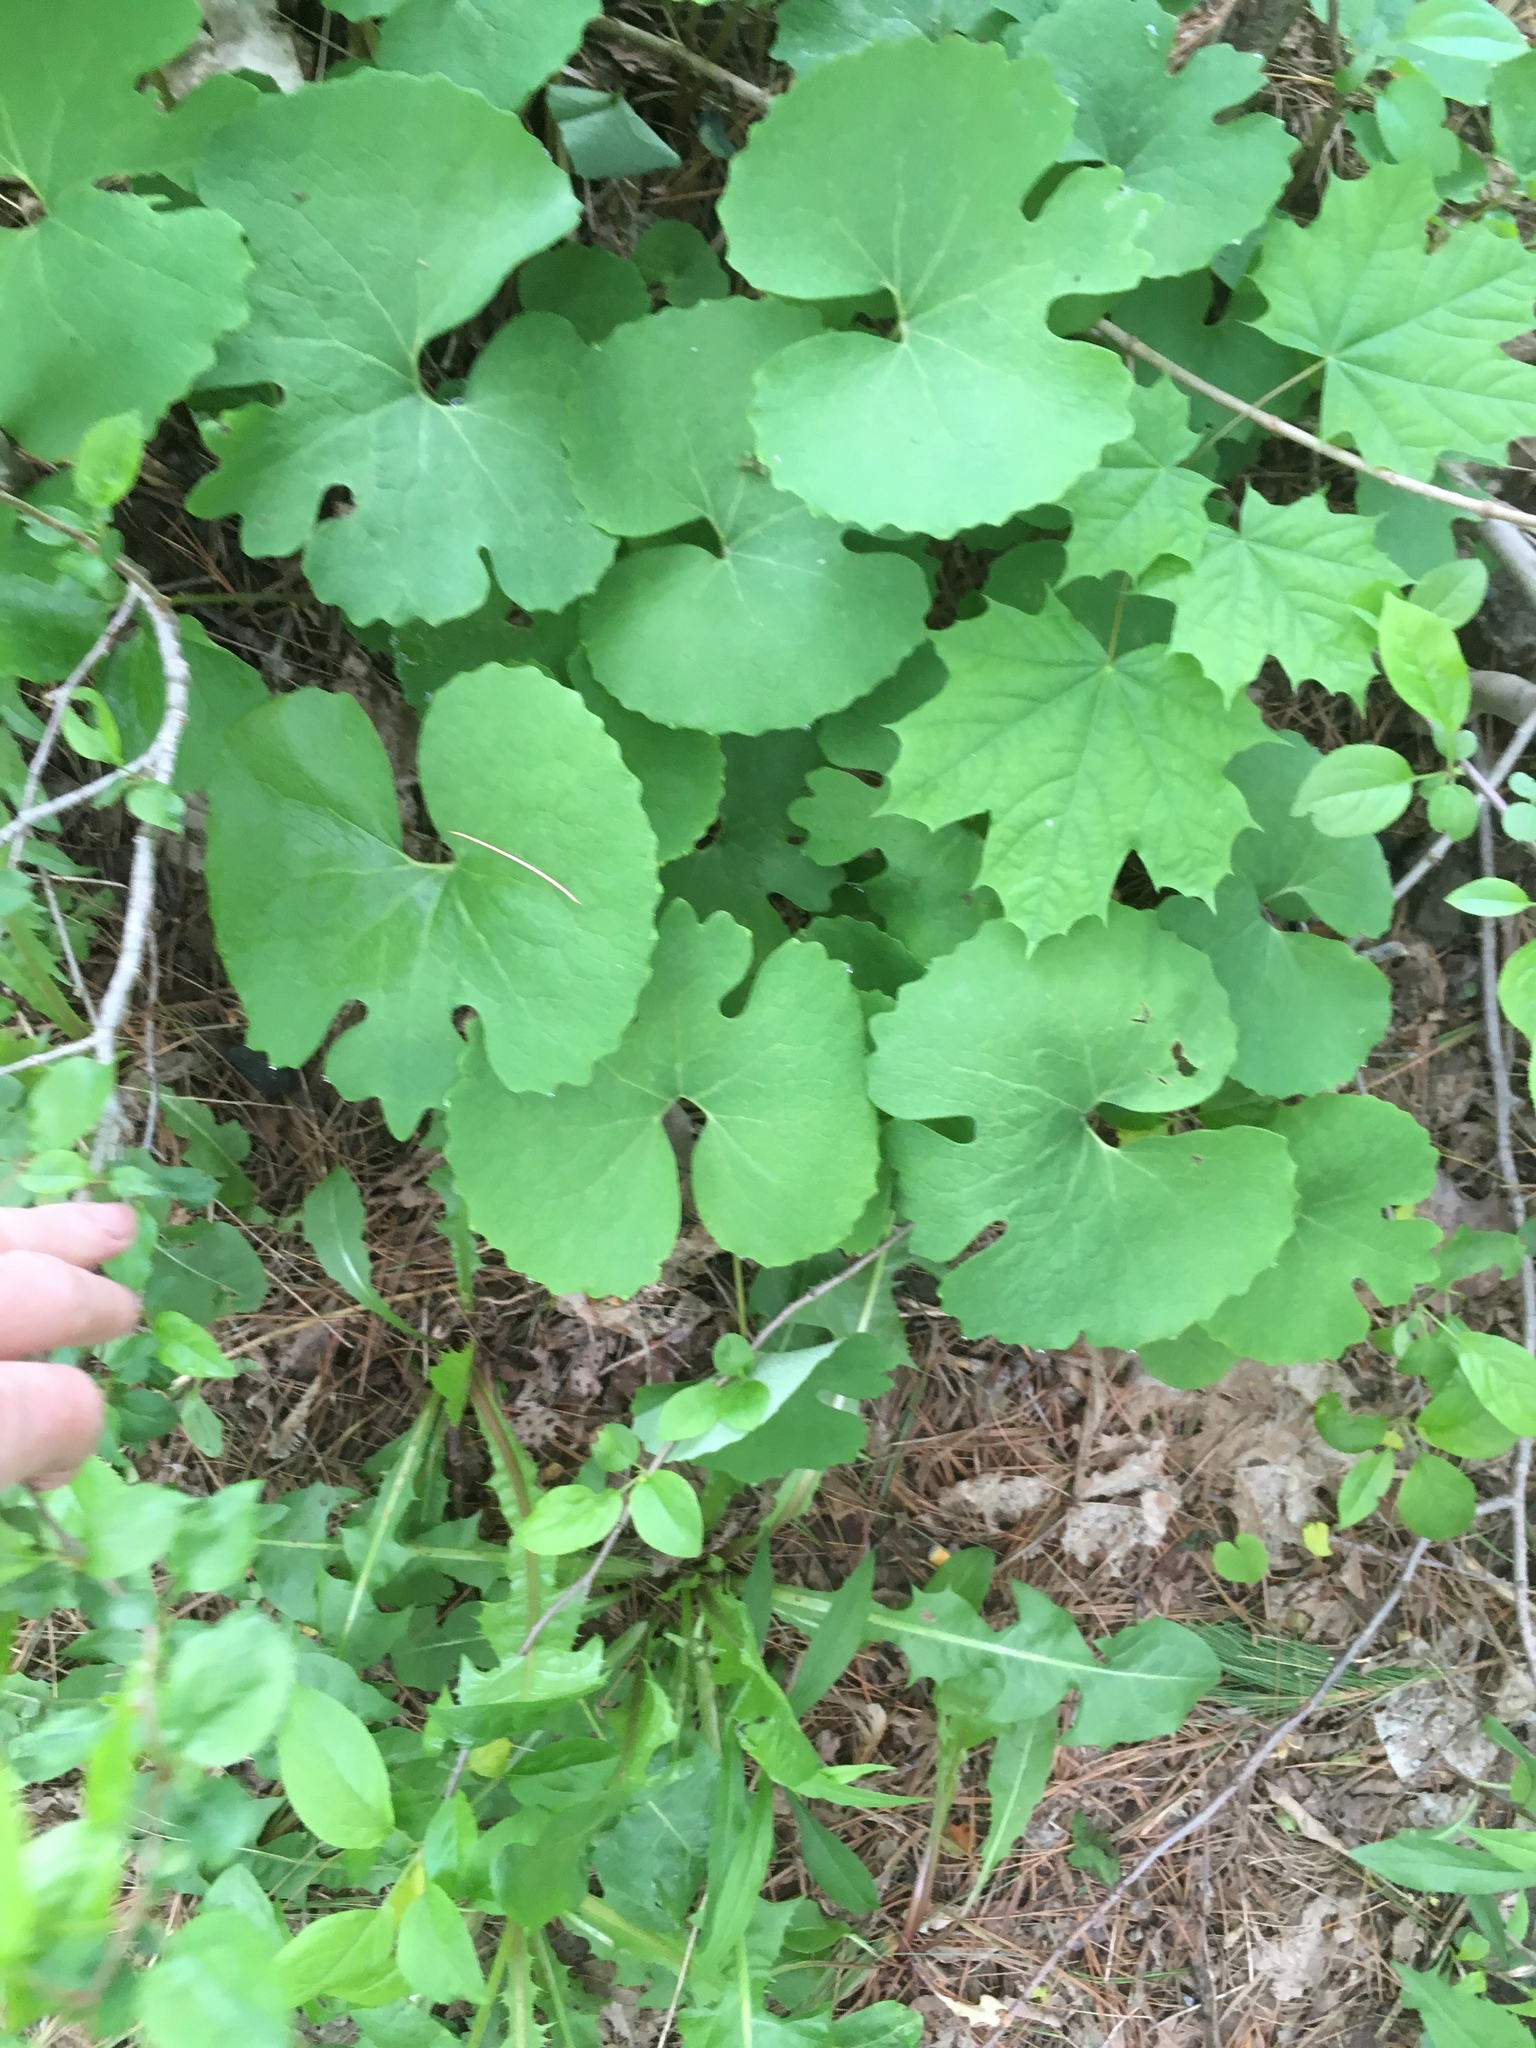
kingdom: Plantae
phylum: Tracheophyta
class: Magnoliopsida
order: Ranunculales
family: Papaveraceae
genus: Sanguinaria
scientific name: Sanguinaria canadensis
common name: Bloodroot
